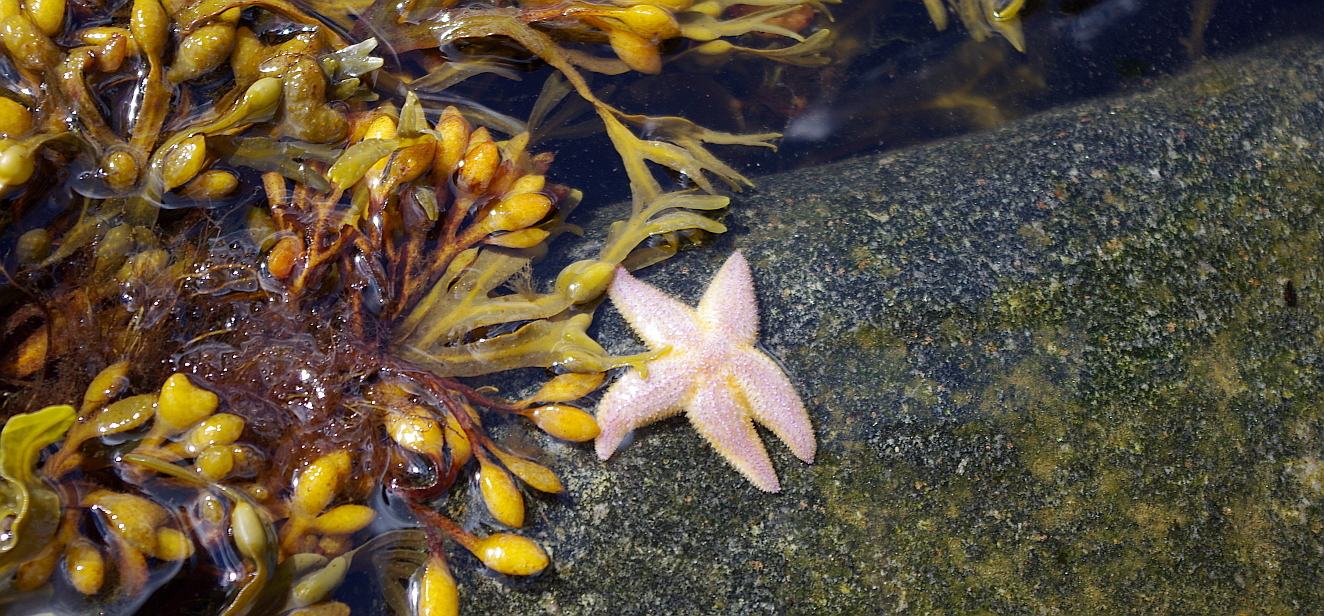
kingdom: Animalia
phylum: Echinodermata
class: Asteroidea
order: Forcipulatida
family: Asteriidae
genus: Asterias
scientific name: Asterias rubens
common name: Common starfish
